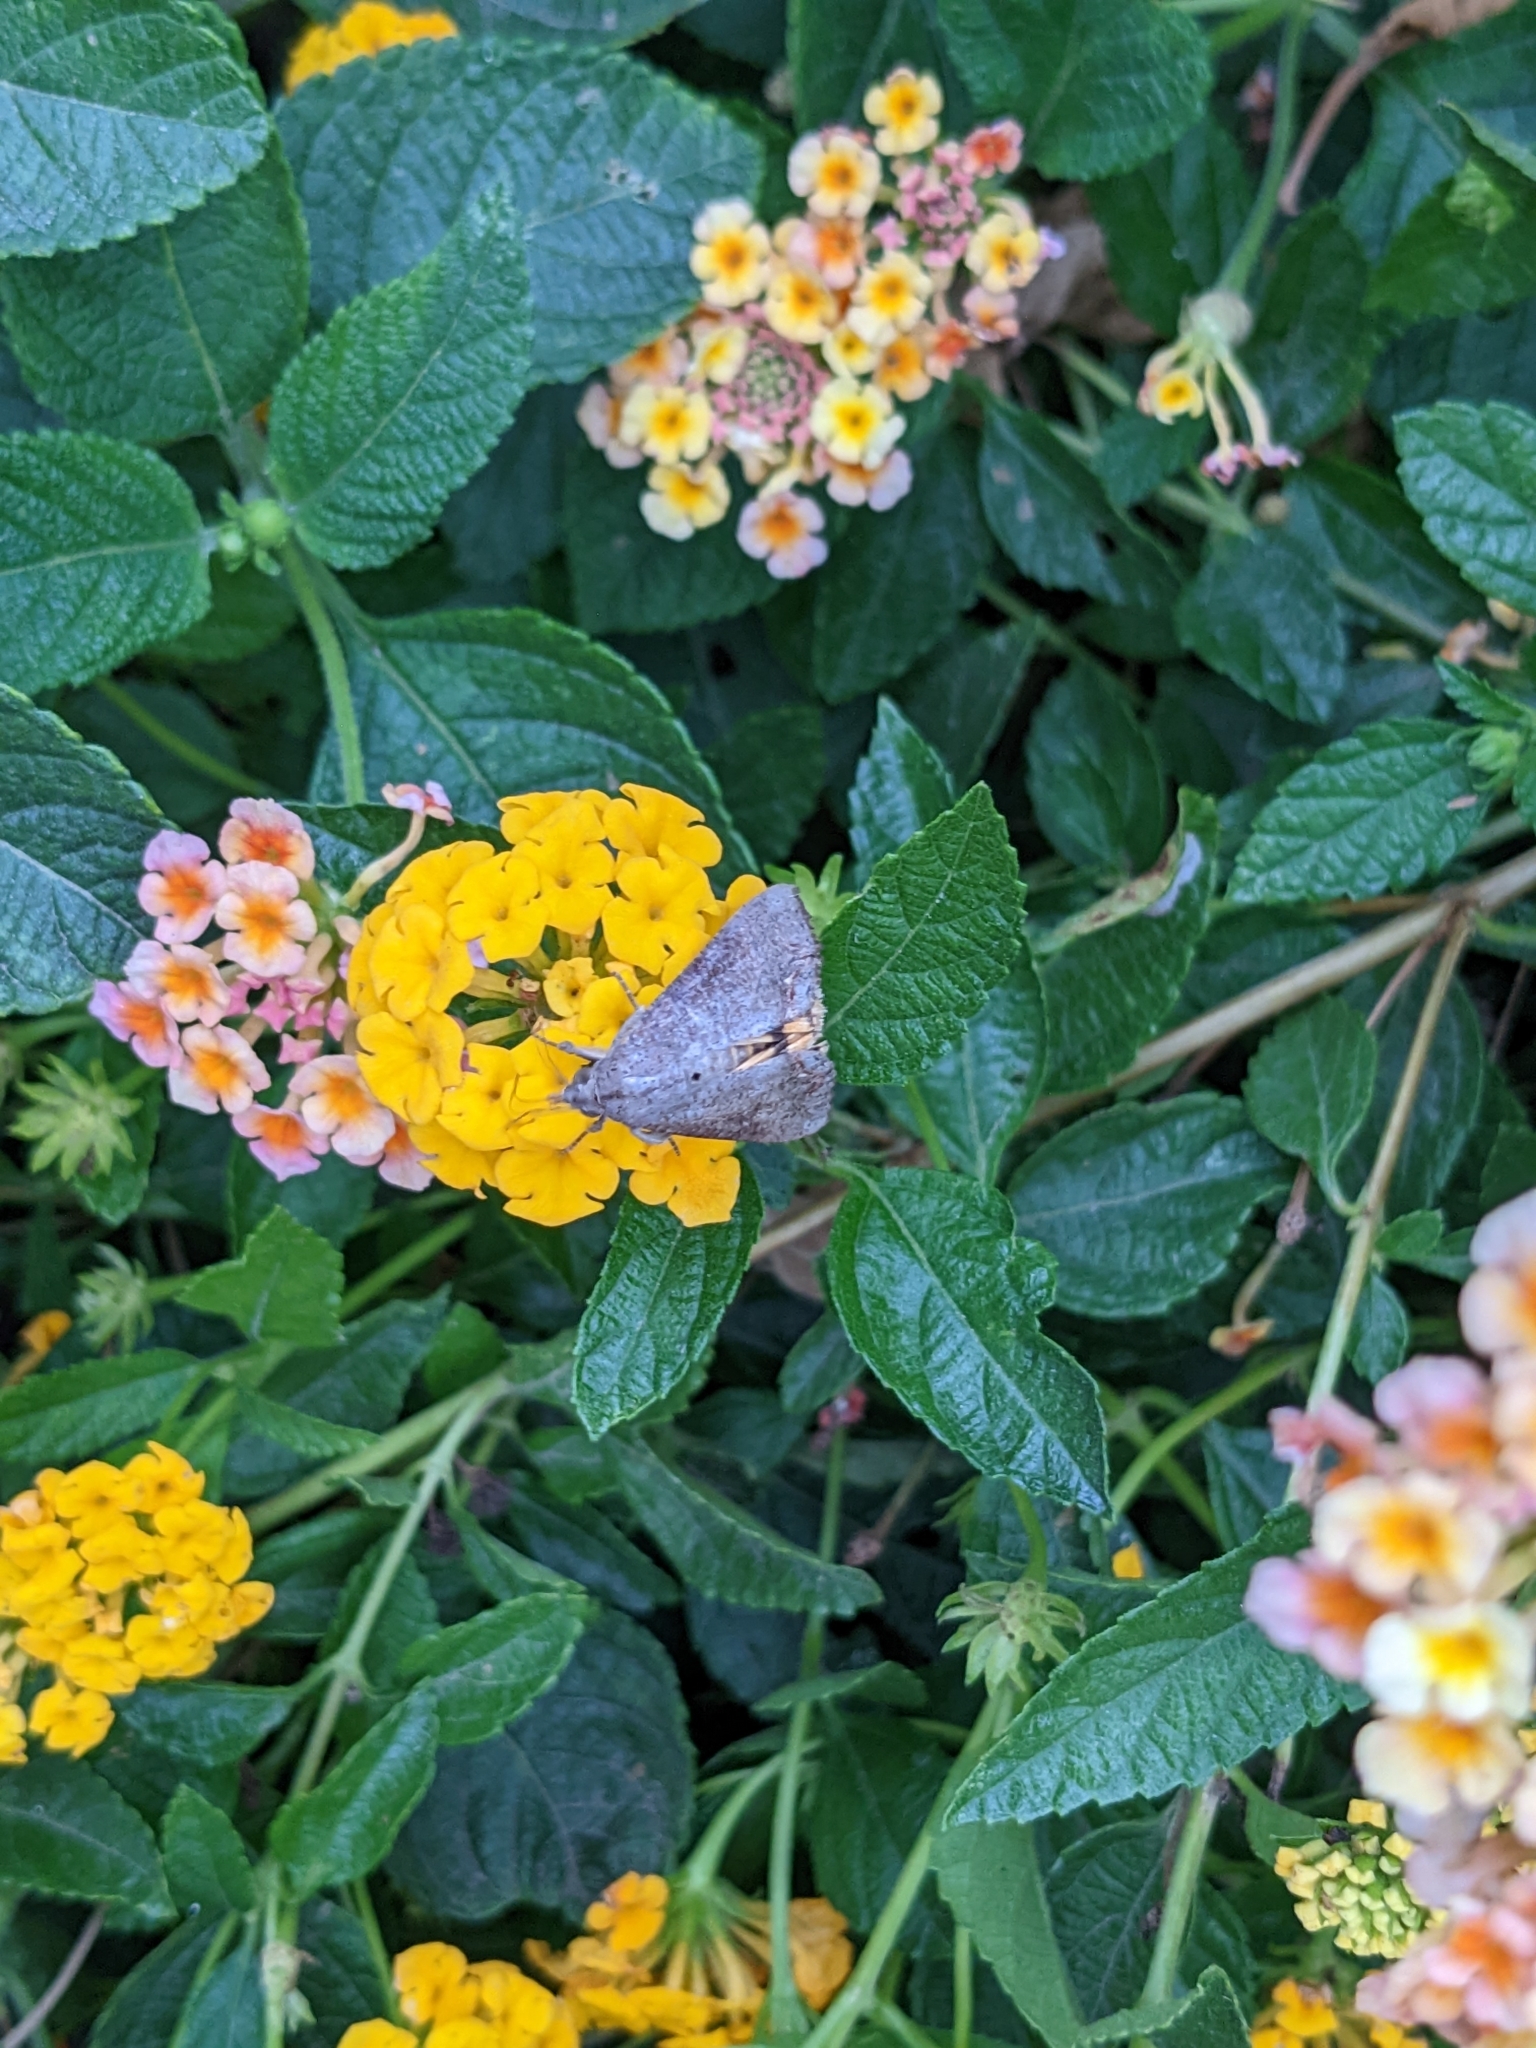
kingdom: Animalia
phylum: Arthropoda
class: Insecta
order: Lepidoptera
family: Erebidae
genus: Hypocala
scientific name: Hypocala andremona
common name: Hypocala moth
